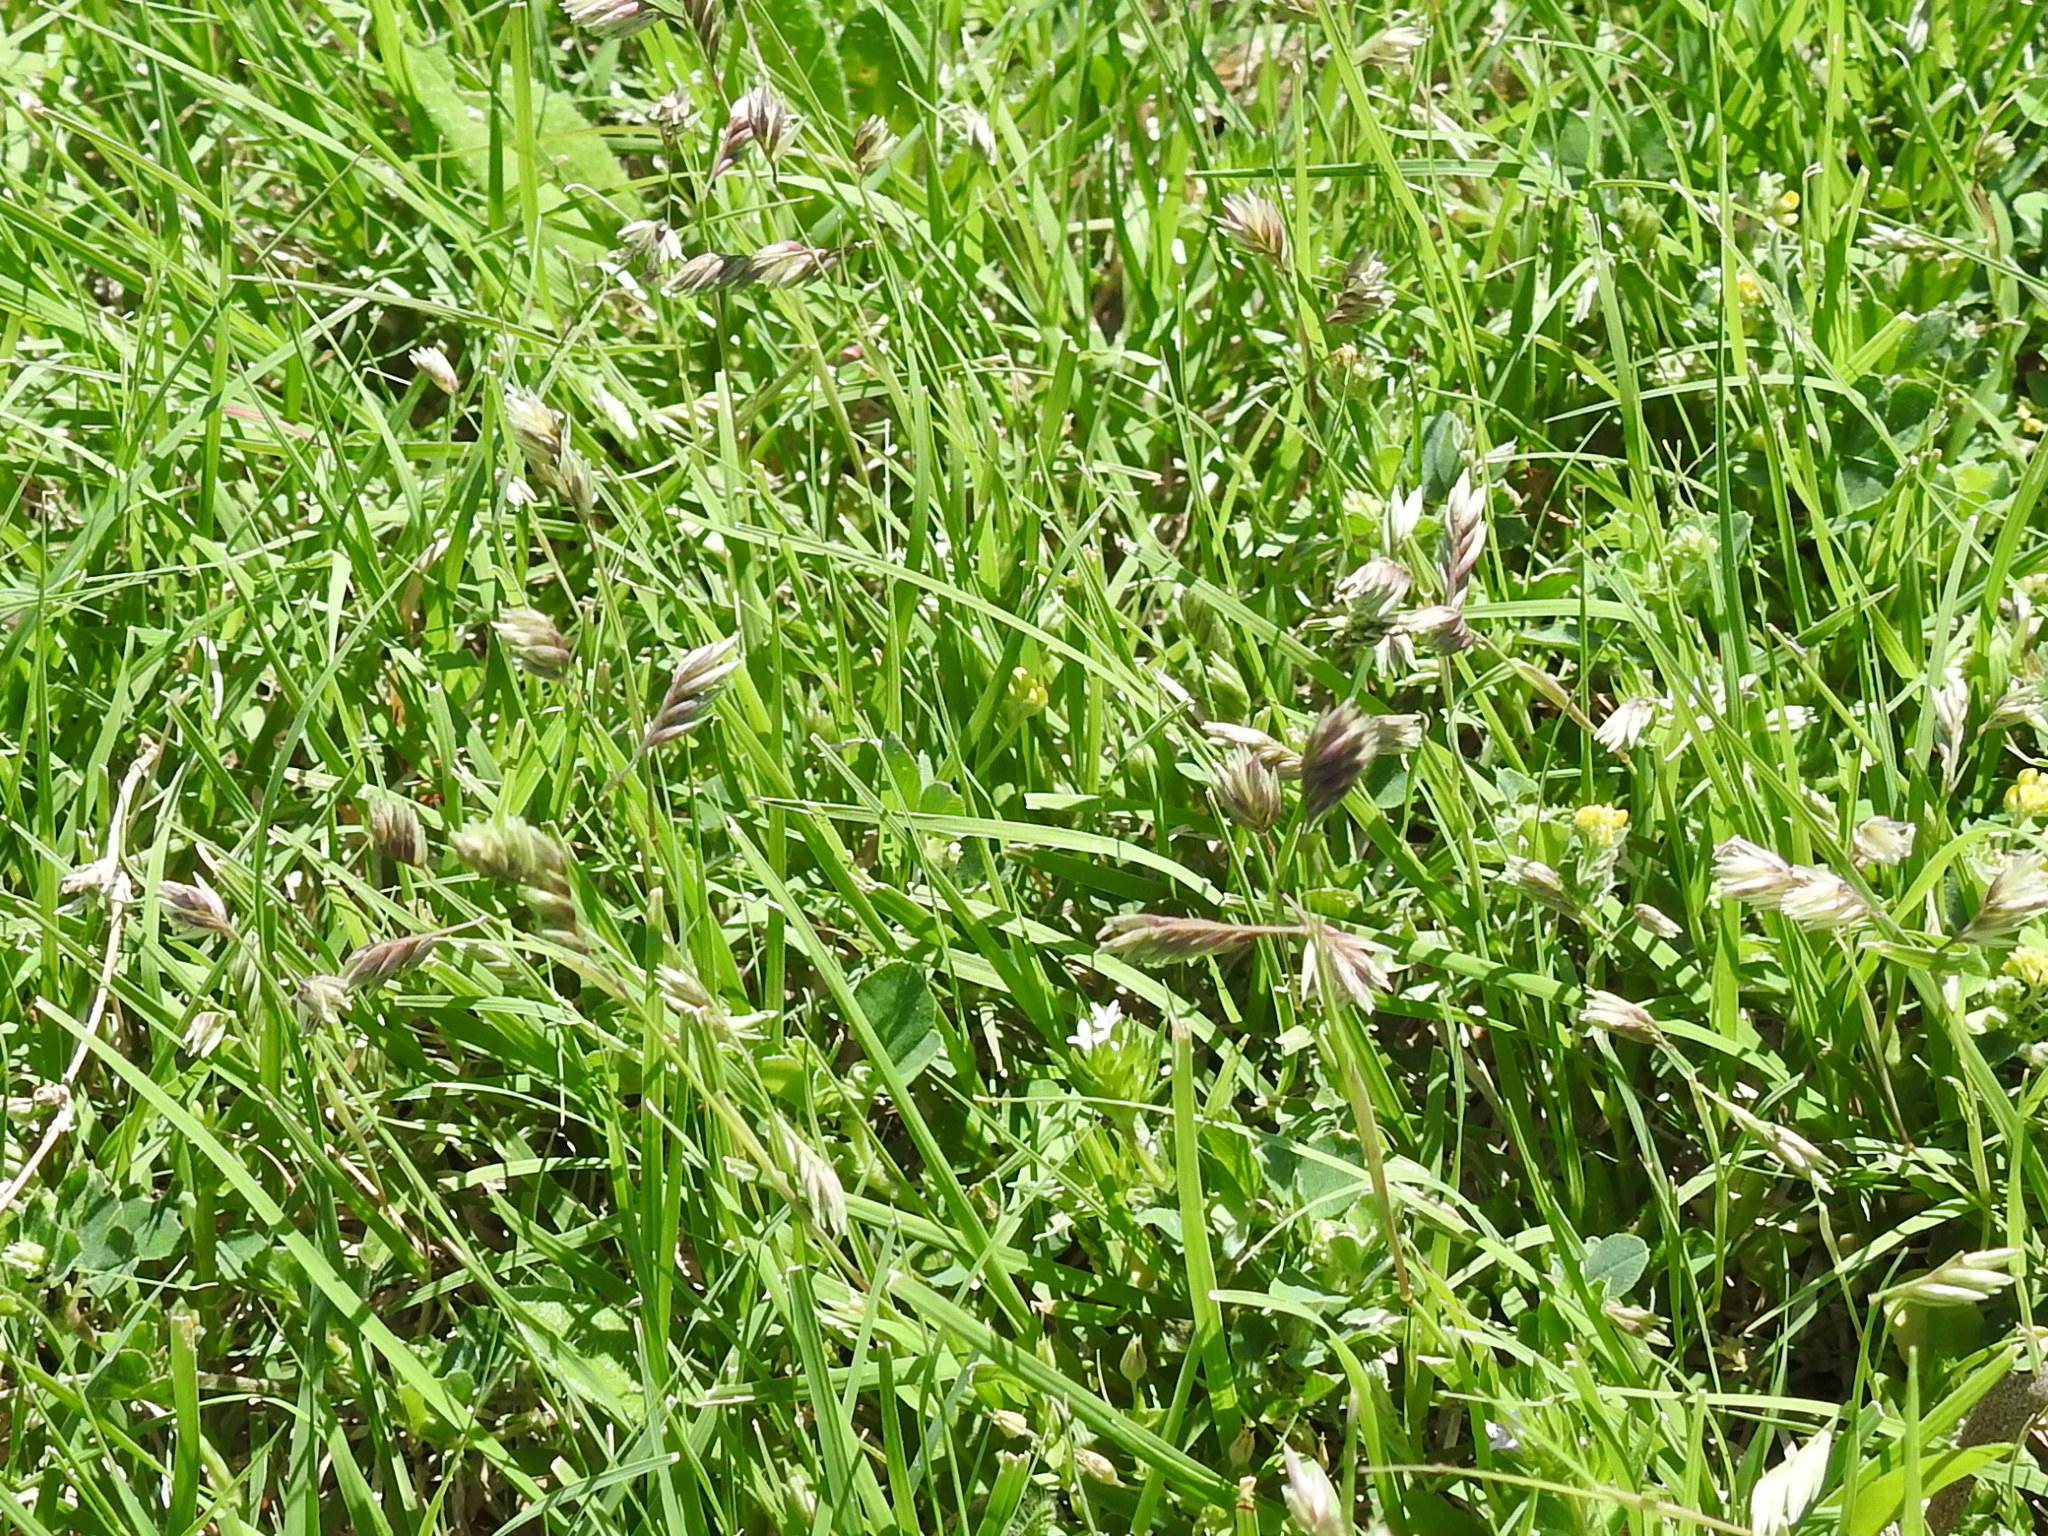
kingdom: Plantae
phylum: Tracheophyta
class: Liliopsida
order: Poales
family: Poaceae
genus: Bouteloua
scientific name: Bouteloua dactyloides
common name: Buffalo grass
